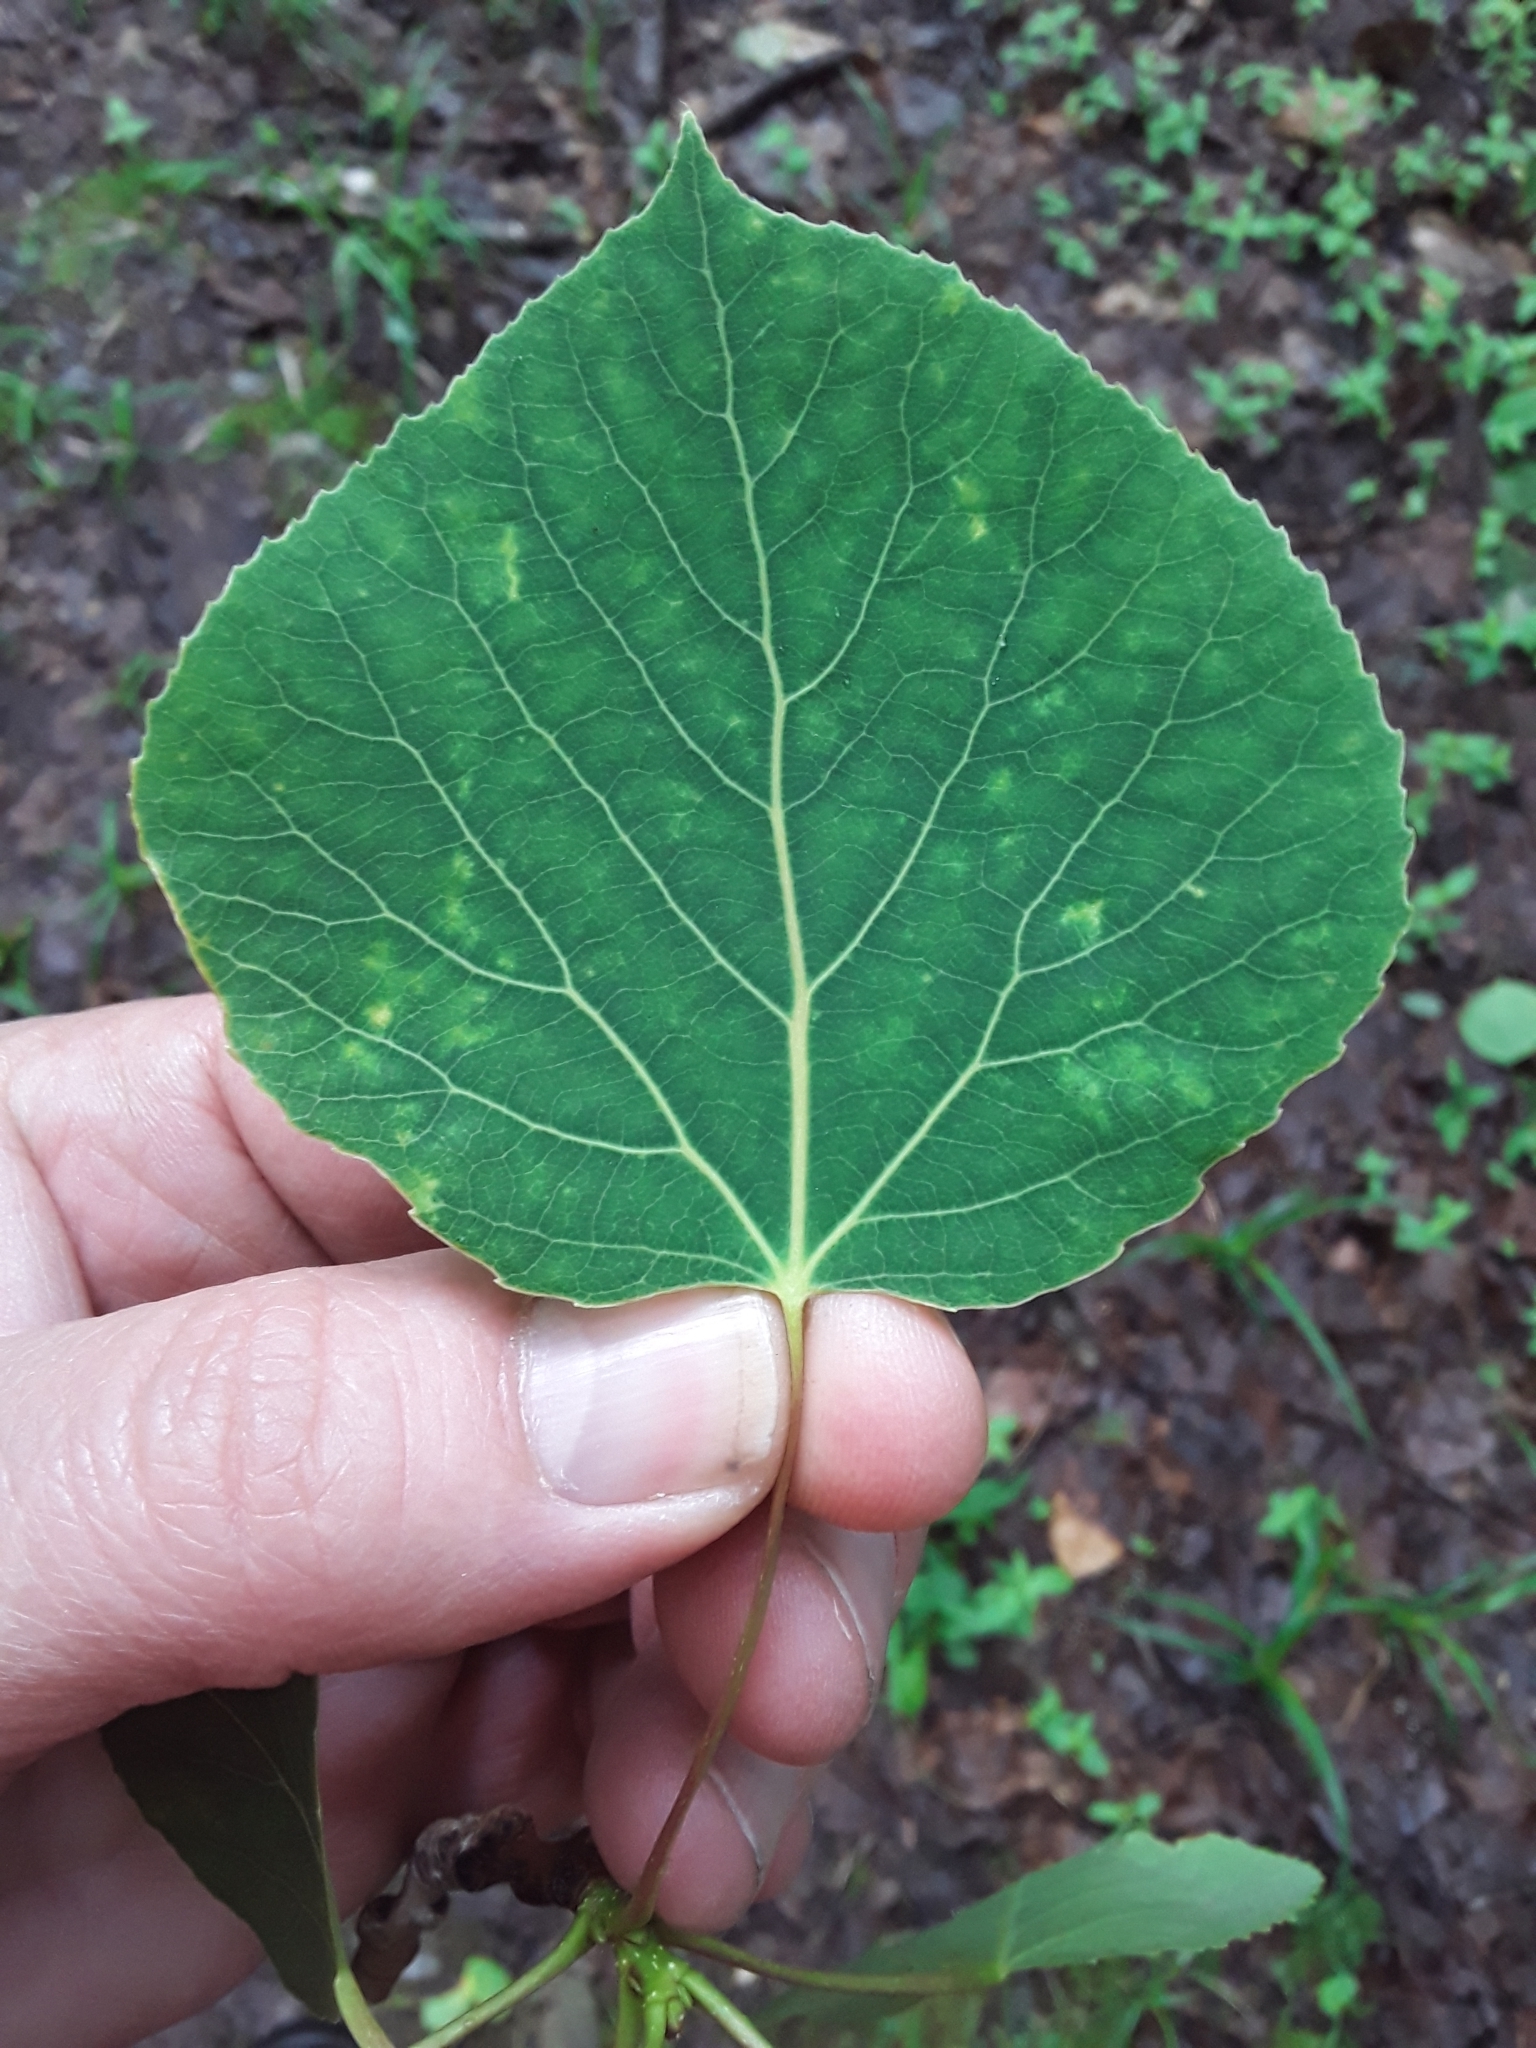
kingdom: Plantae
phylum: Tracheophyta
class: Magnoliopsida
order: Malpighiales
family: Salicaceae
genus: Populus
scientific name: Populus tremuloides
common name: Quaking aspen
